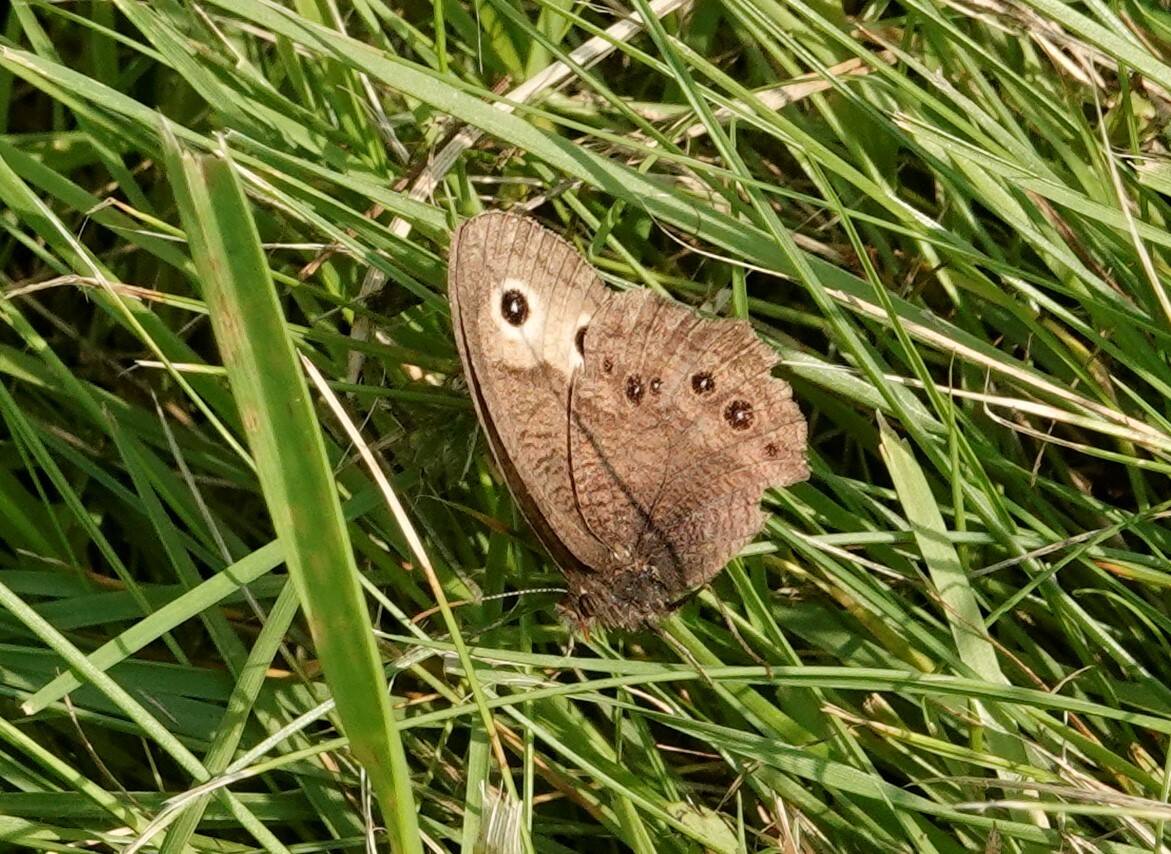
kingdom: Animalia
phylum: Arthropoda
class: Insecta
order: Lepidoptera
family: Nymphalidae
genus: Cercyonis
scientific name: Cercyonis pegala
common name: Common wood-nymph
